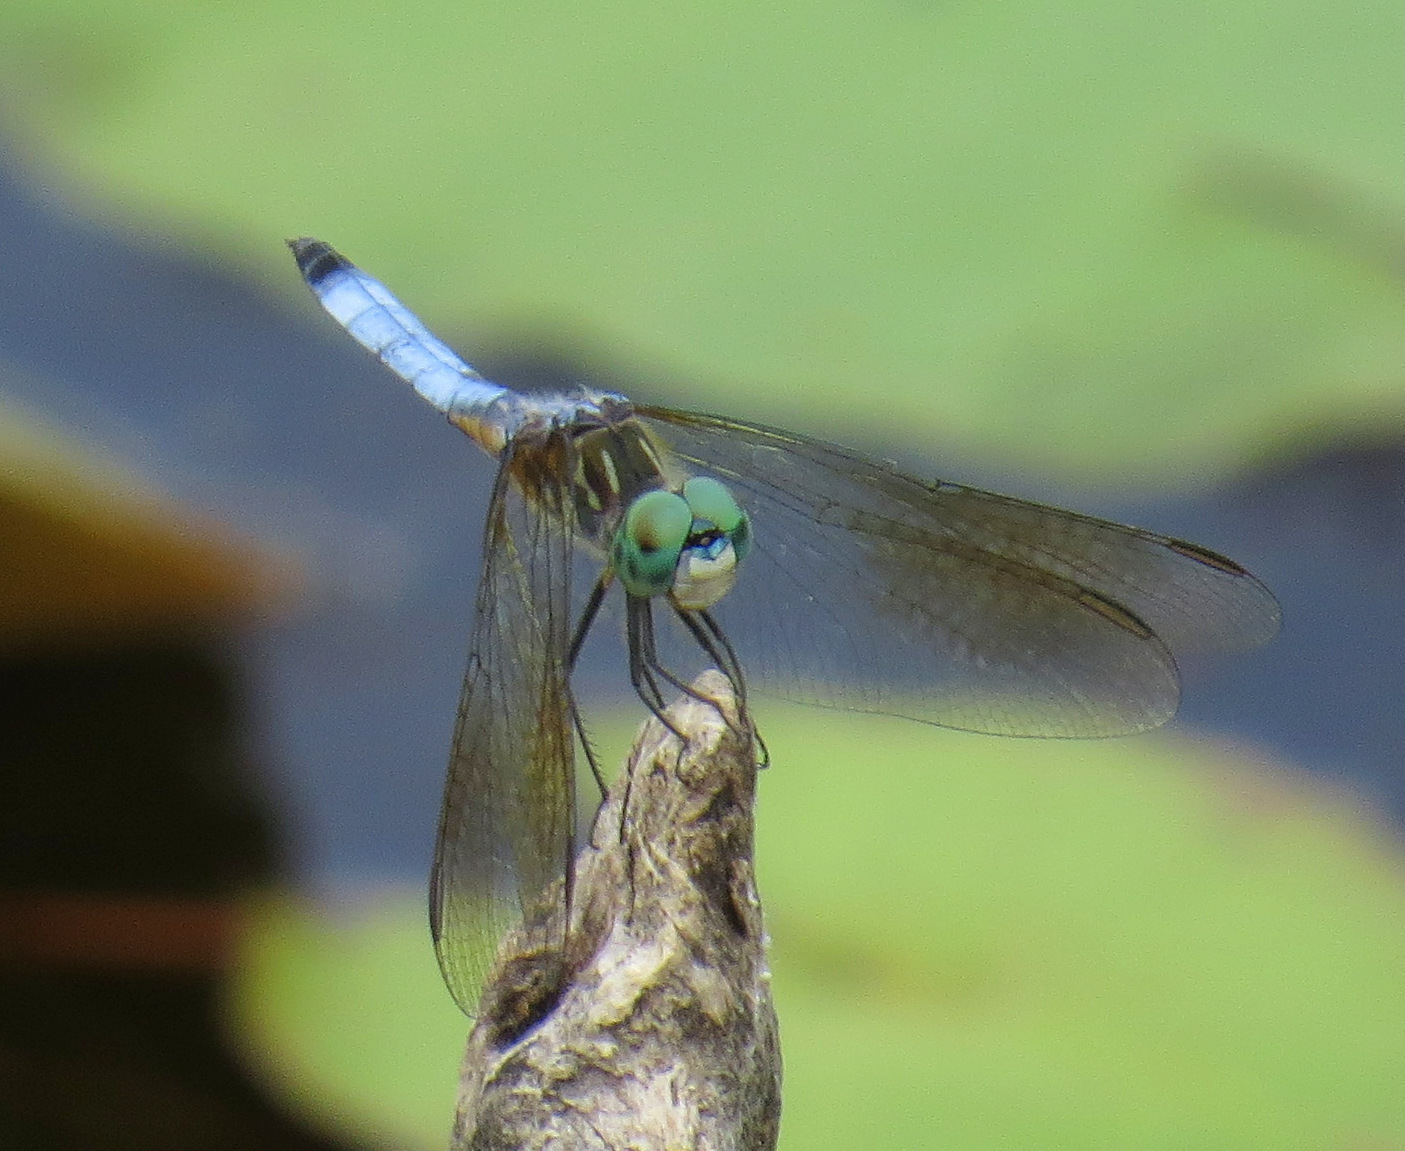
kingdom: Animalia
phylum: Arthropoda
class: Insecta
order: Odonata
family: Libellulidae
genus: Pachydiplax
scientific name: Pachydiplax longipennis
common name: Blue dasher
